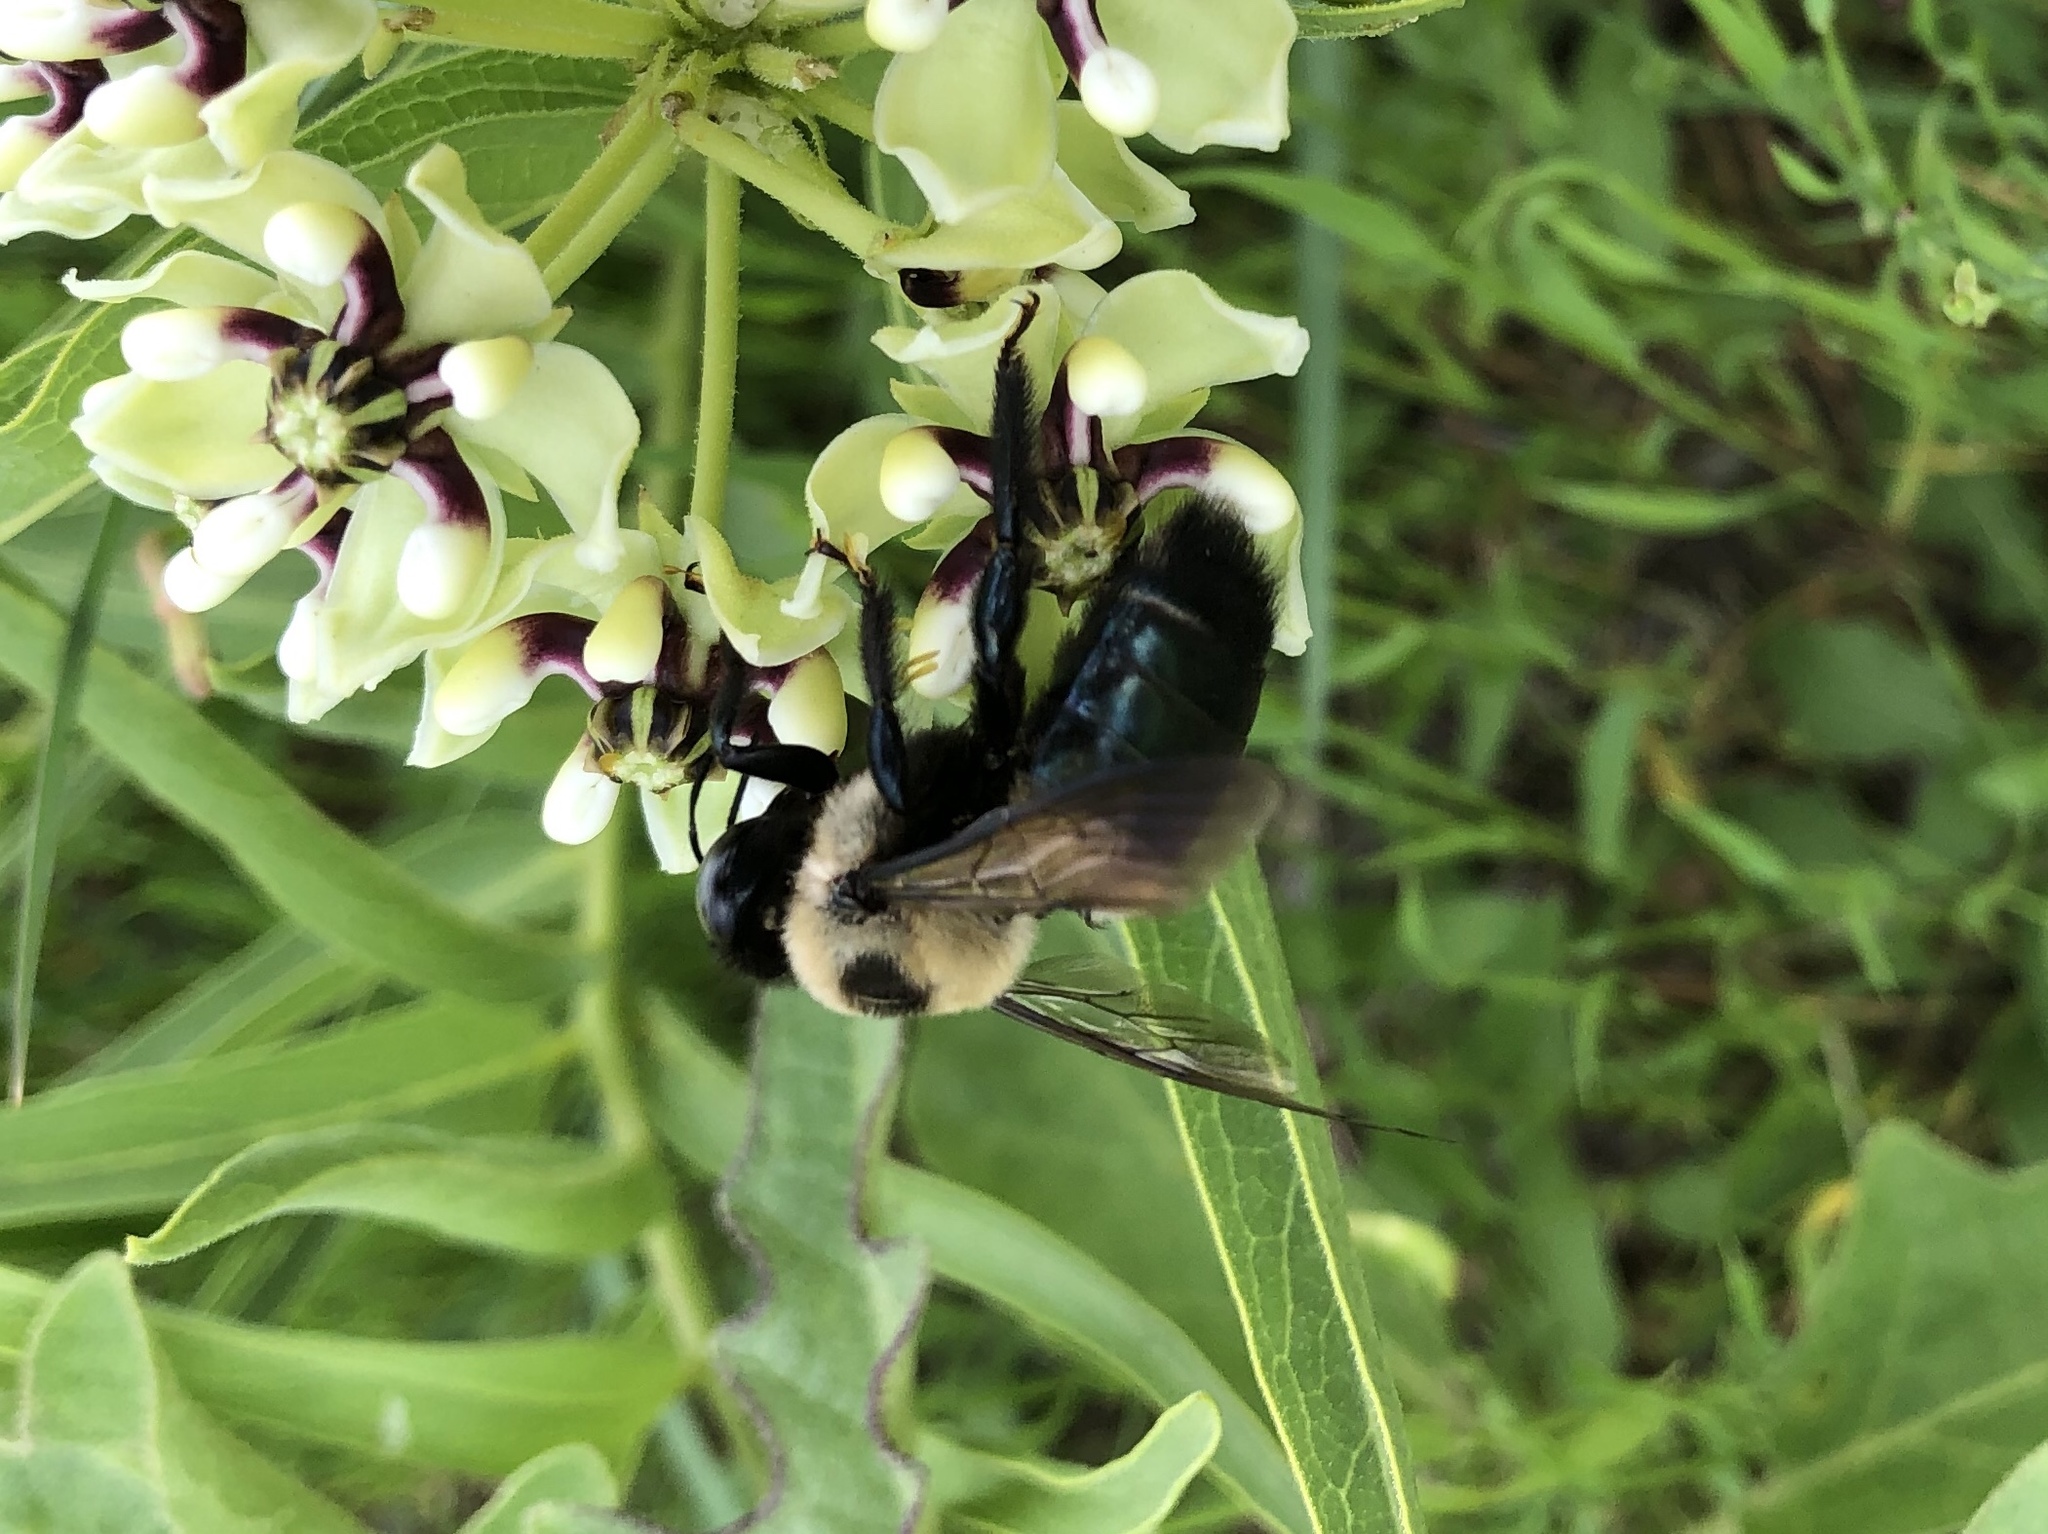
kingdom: Animalia
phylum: Arthropoda
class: Insecta
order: Hymenoptera
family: Apidae
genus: Xylocopa
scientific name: Xylocopa virginica
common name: Carpenter bee
